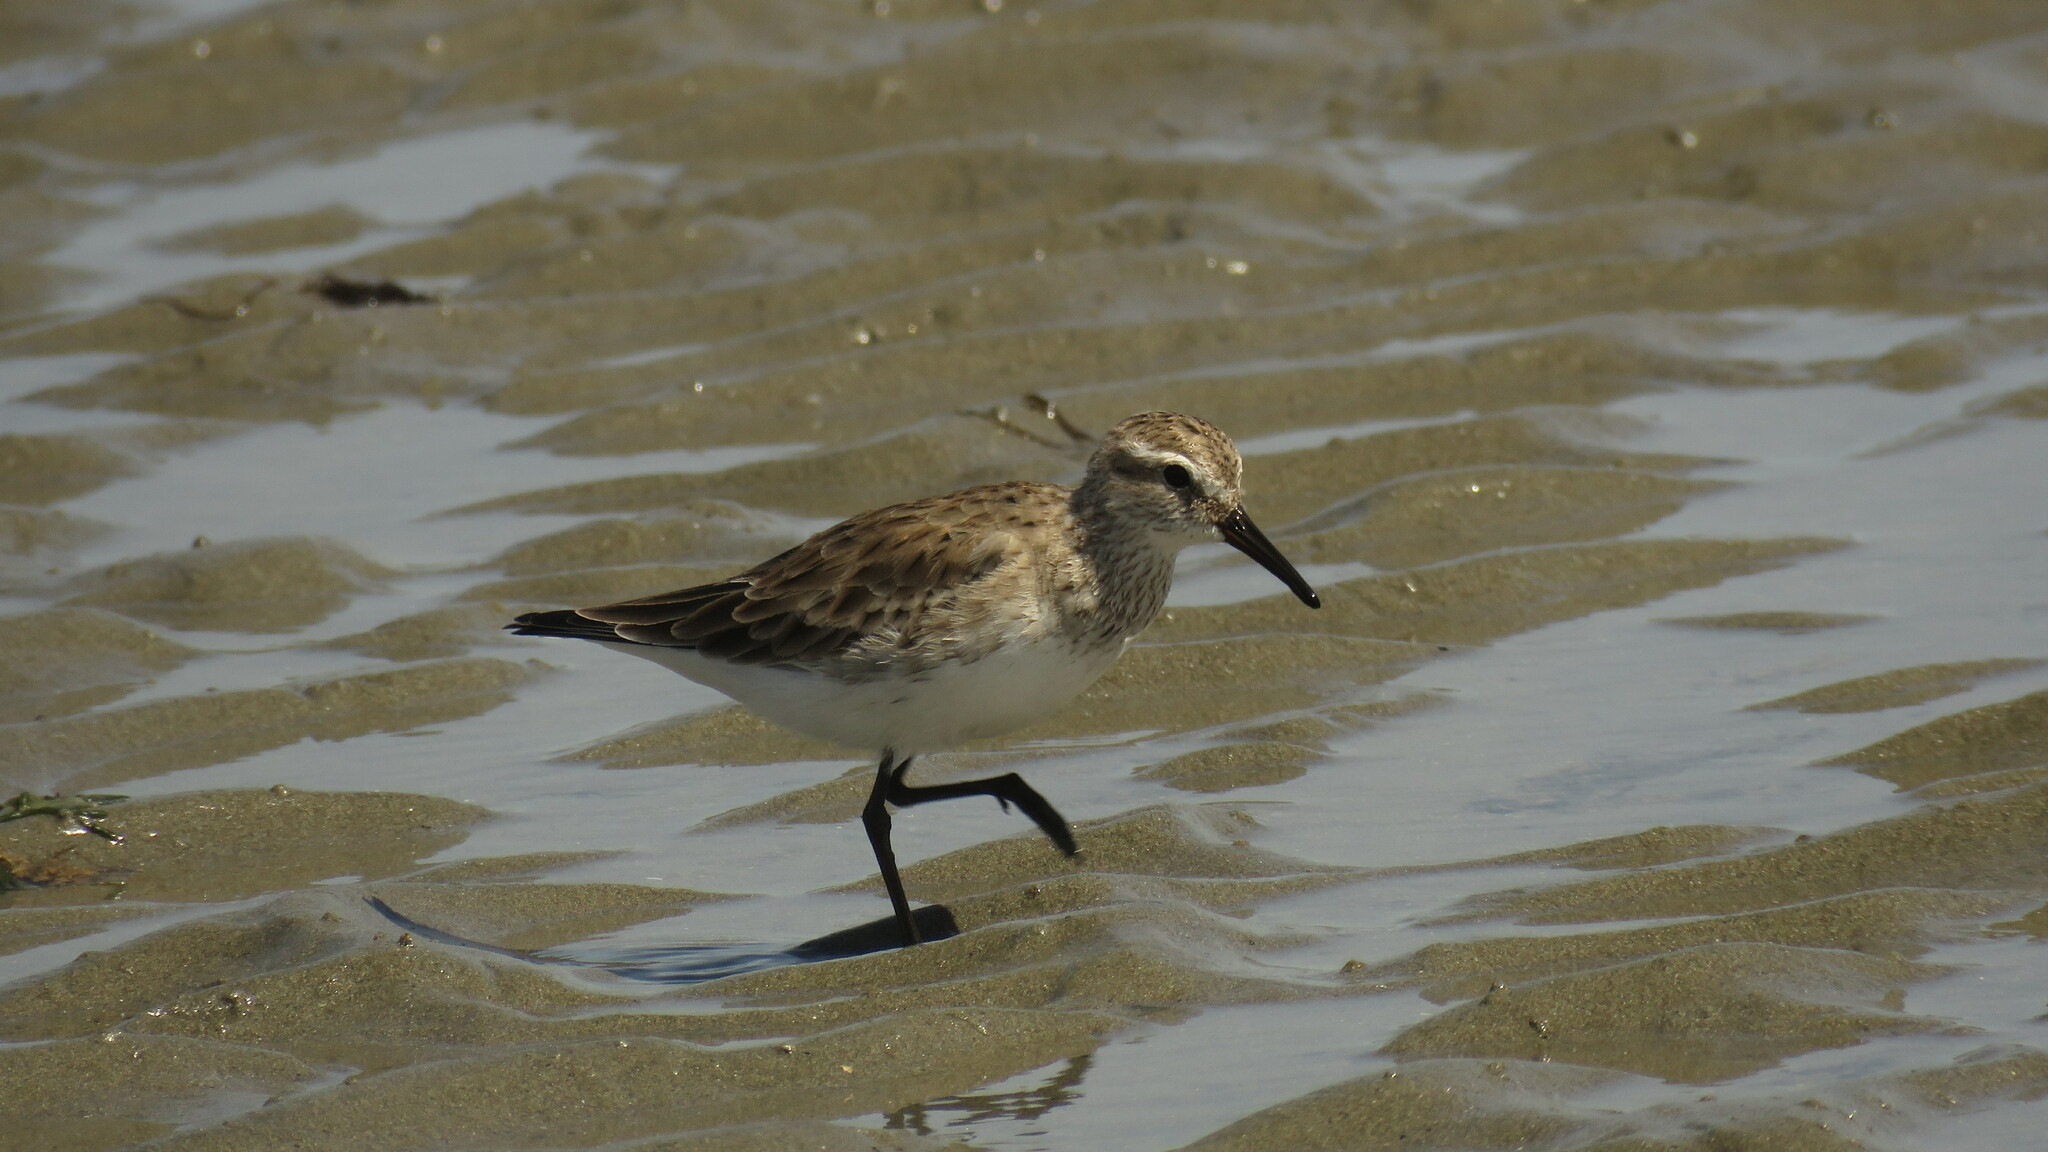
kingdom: Animalia
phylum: Chordata
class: Aves
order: Charadriiformes
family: Scolopacidae
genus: Calidris
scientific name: Calidris bairdii
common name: Baird's sandpiper
